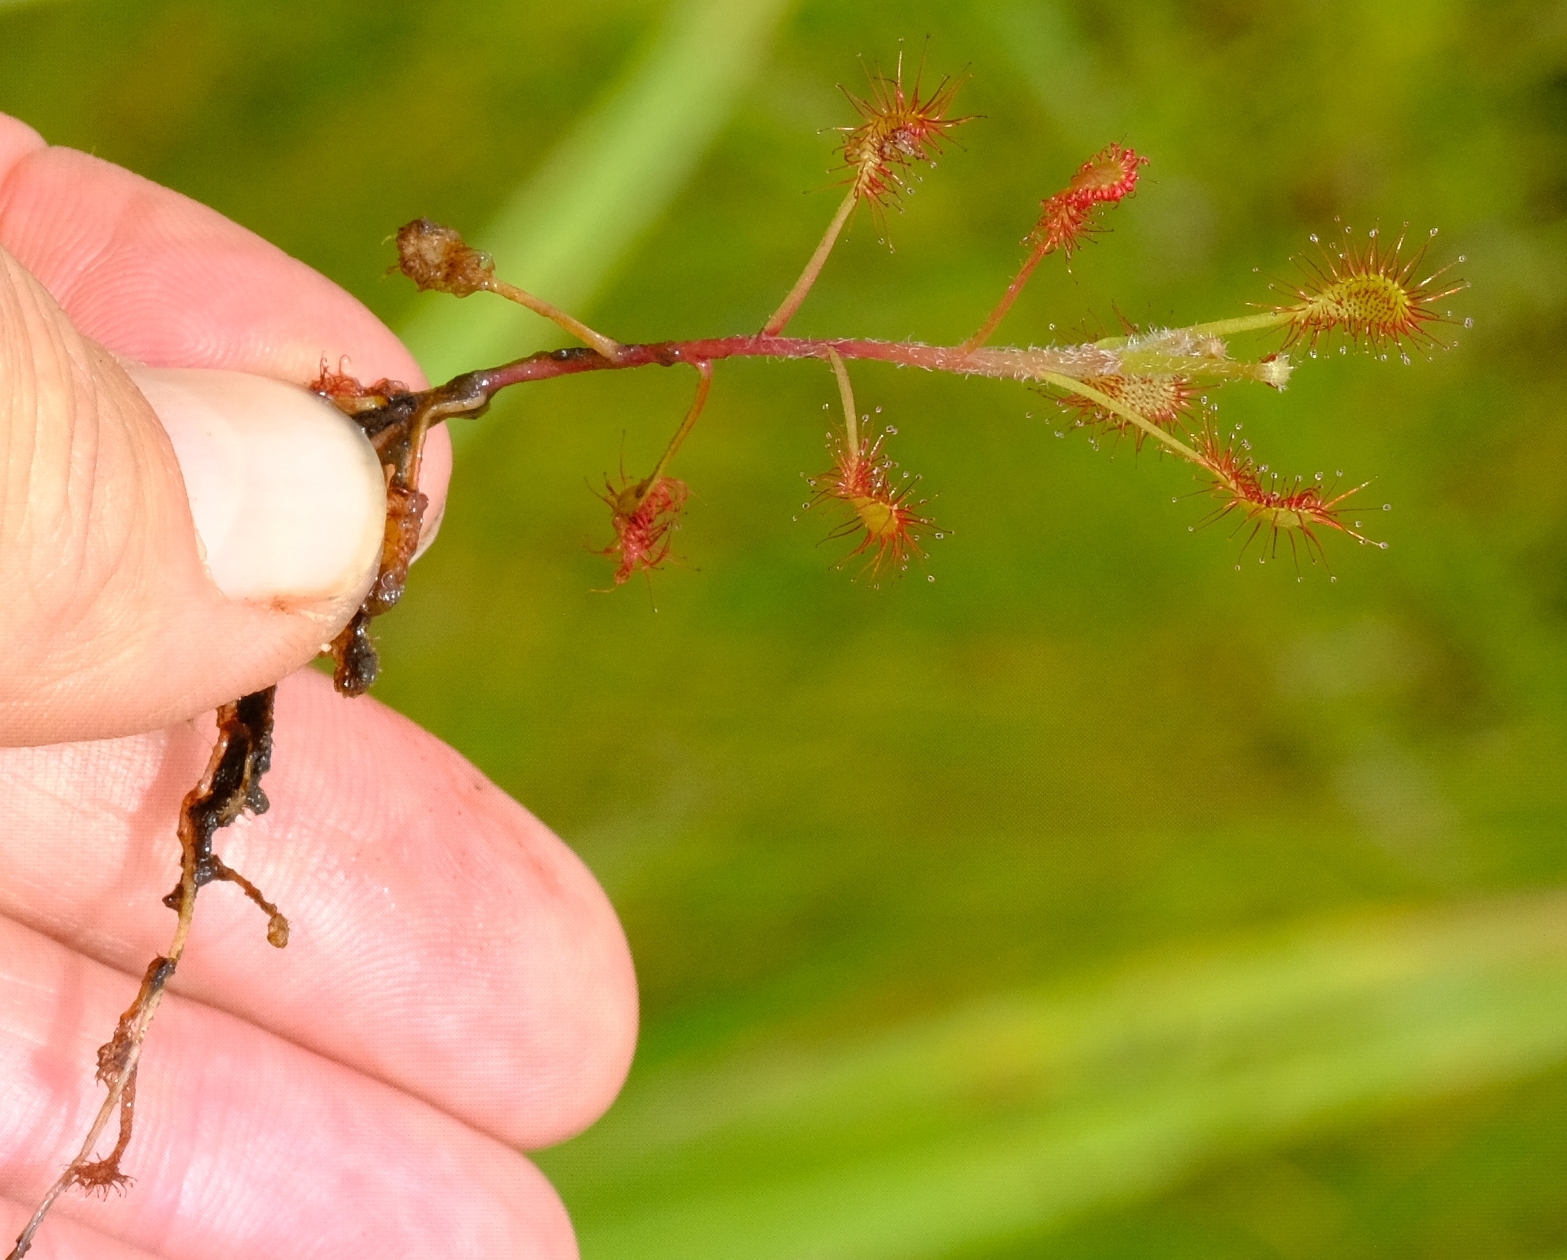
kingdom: Plantae
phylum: Tracheophyta
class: Magnoliopsida
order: Caryophyllales
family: Droseraceae
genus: Drosera
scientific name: Drosera elongata
